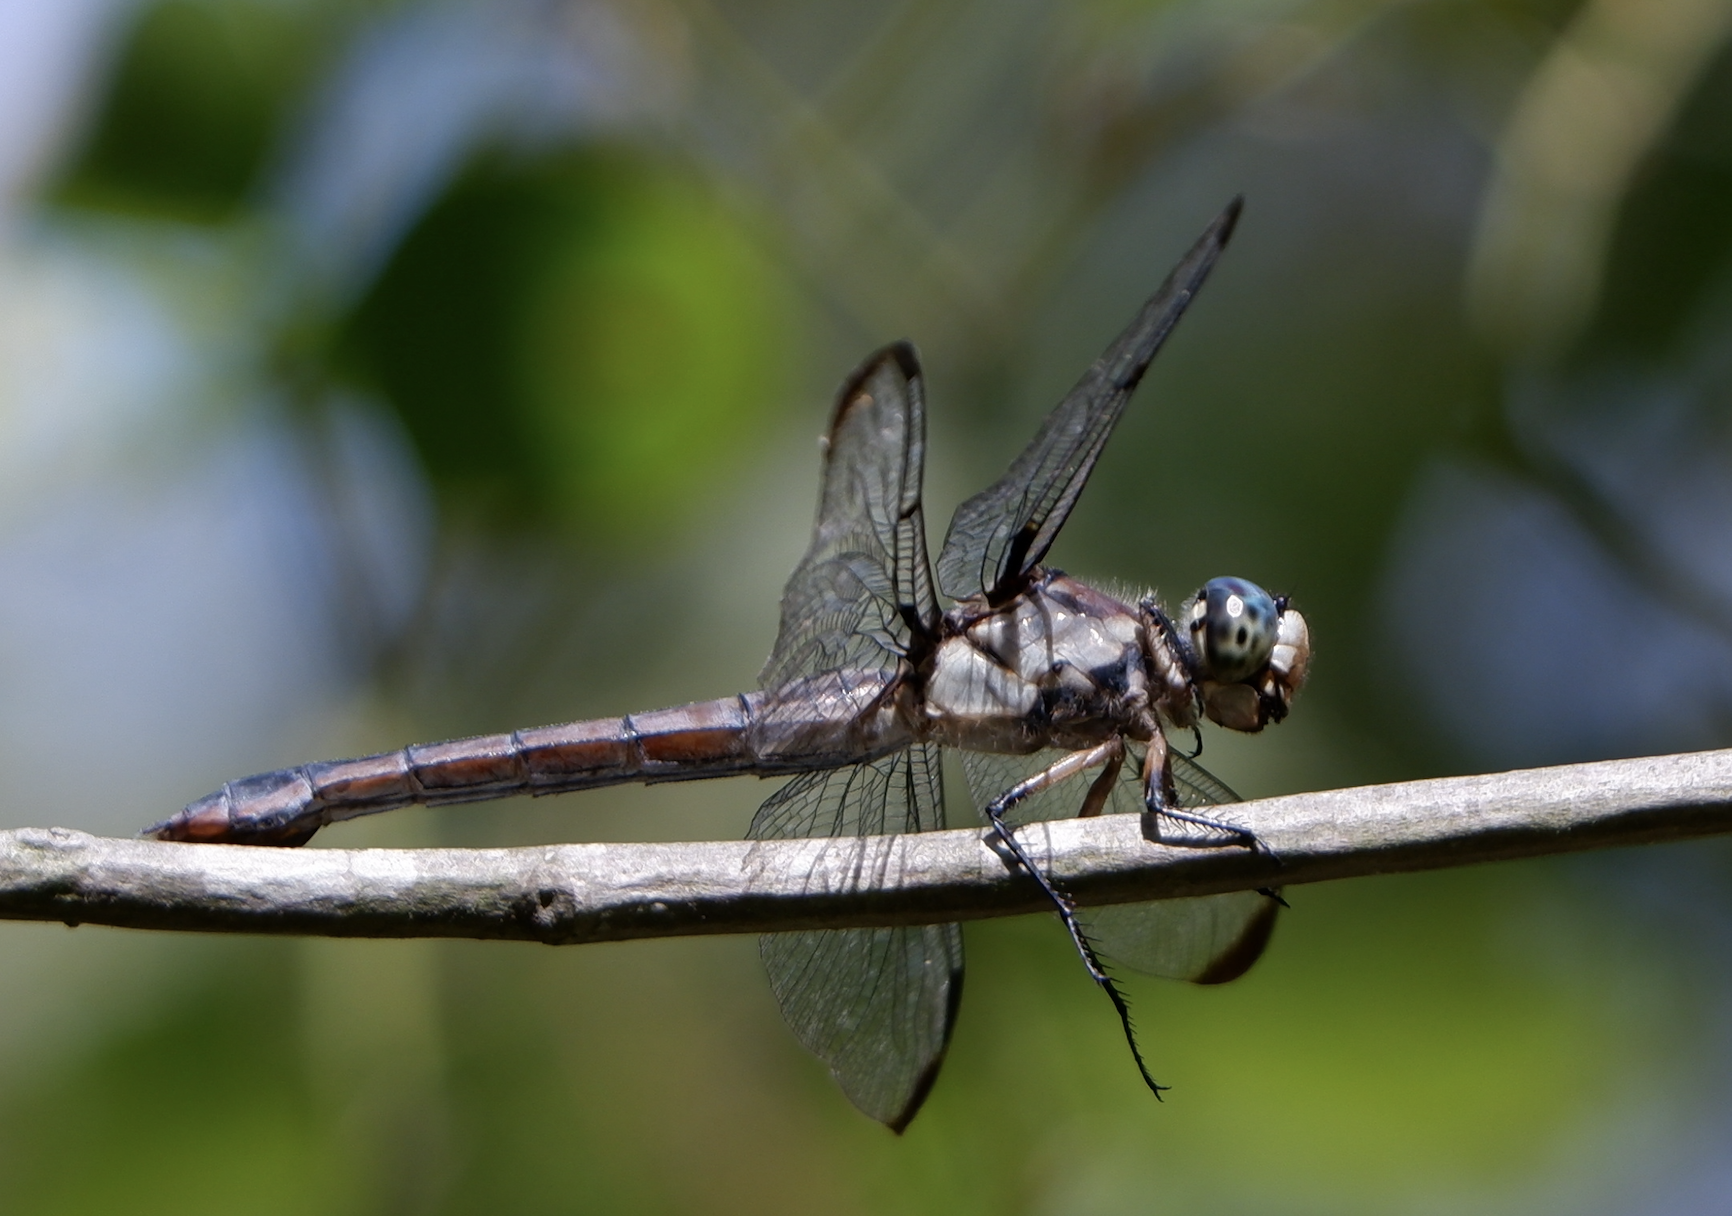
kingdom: Animalia
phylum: Arthropoda
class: Insecta
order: Odonata
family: Libellulidae
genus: Libellula
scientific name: Libellula vibrans
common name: Great blue skimmer
